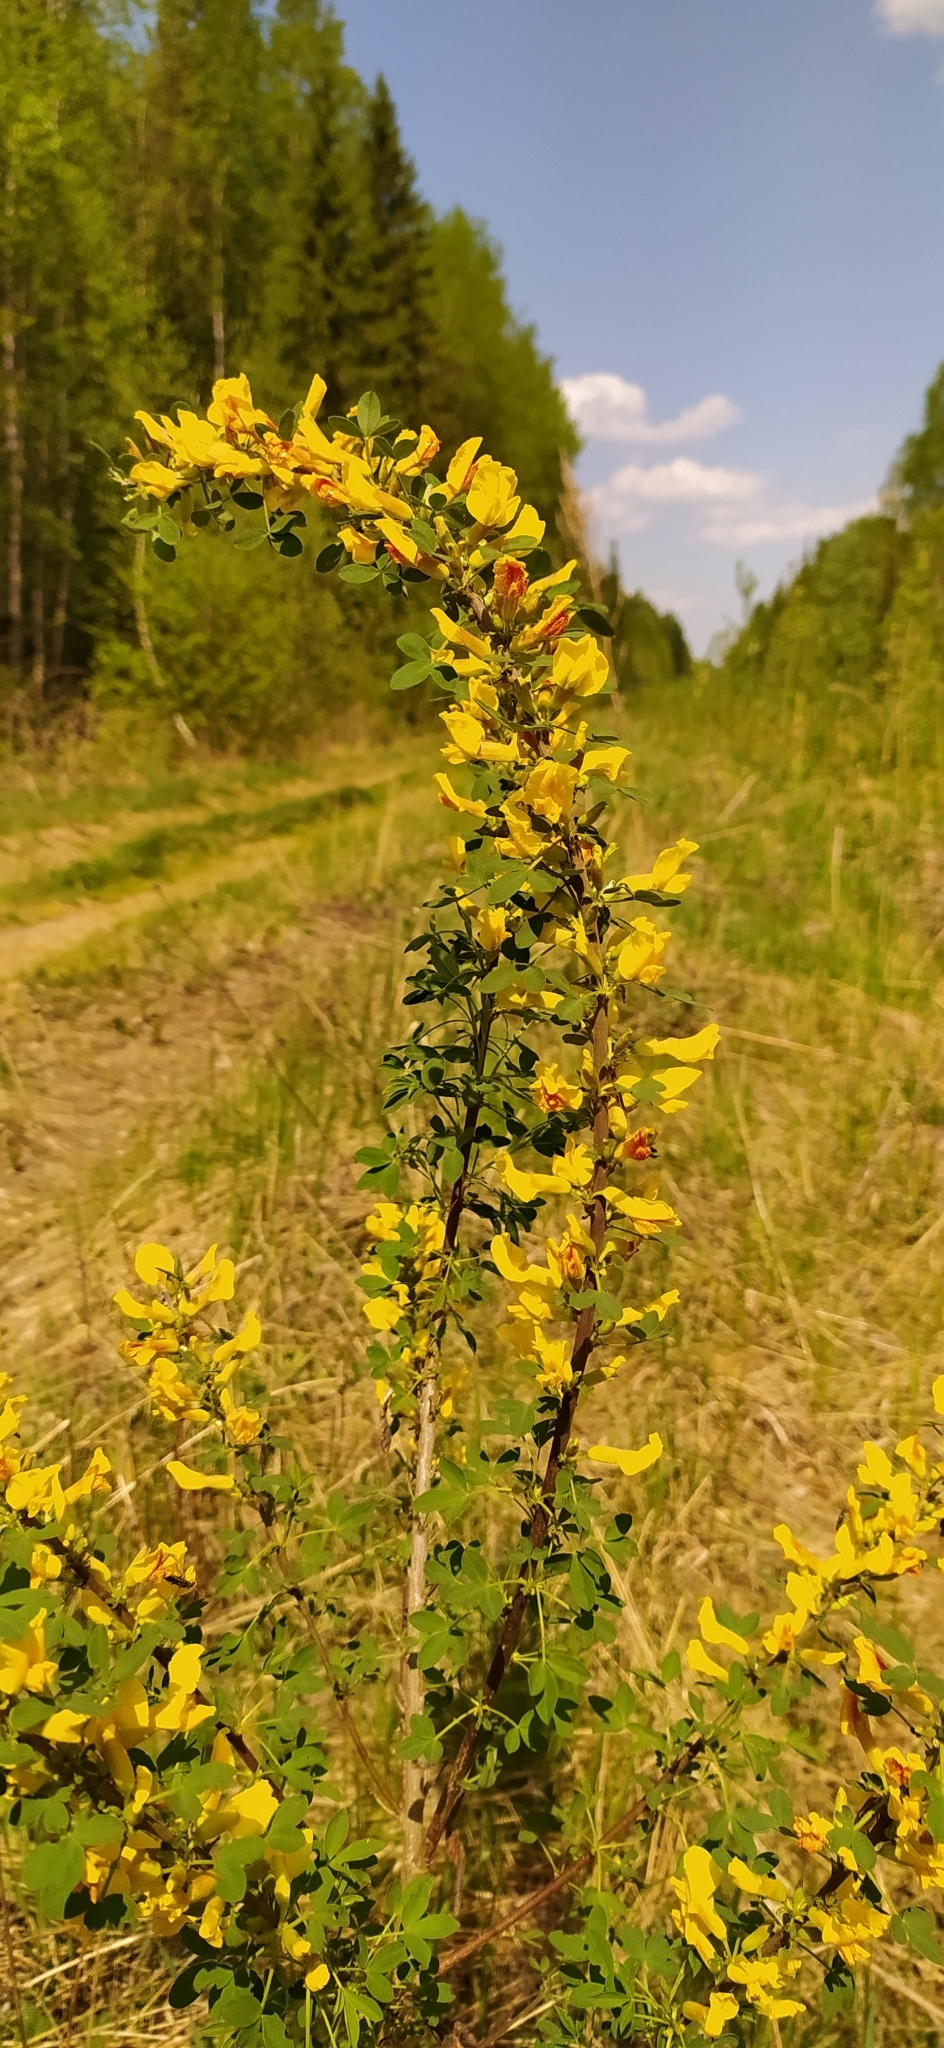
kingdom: Plantae
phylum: Tracheophyta
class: Magnoliopsida
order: Fabales
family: Fabaceae
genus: Chamaecytisus
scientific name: Chamaecytisus ruthenicus
